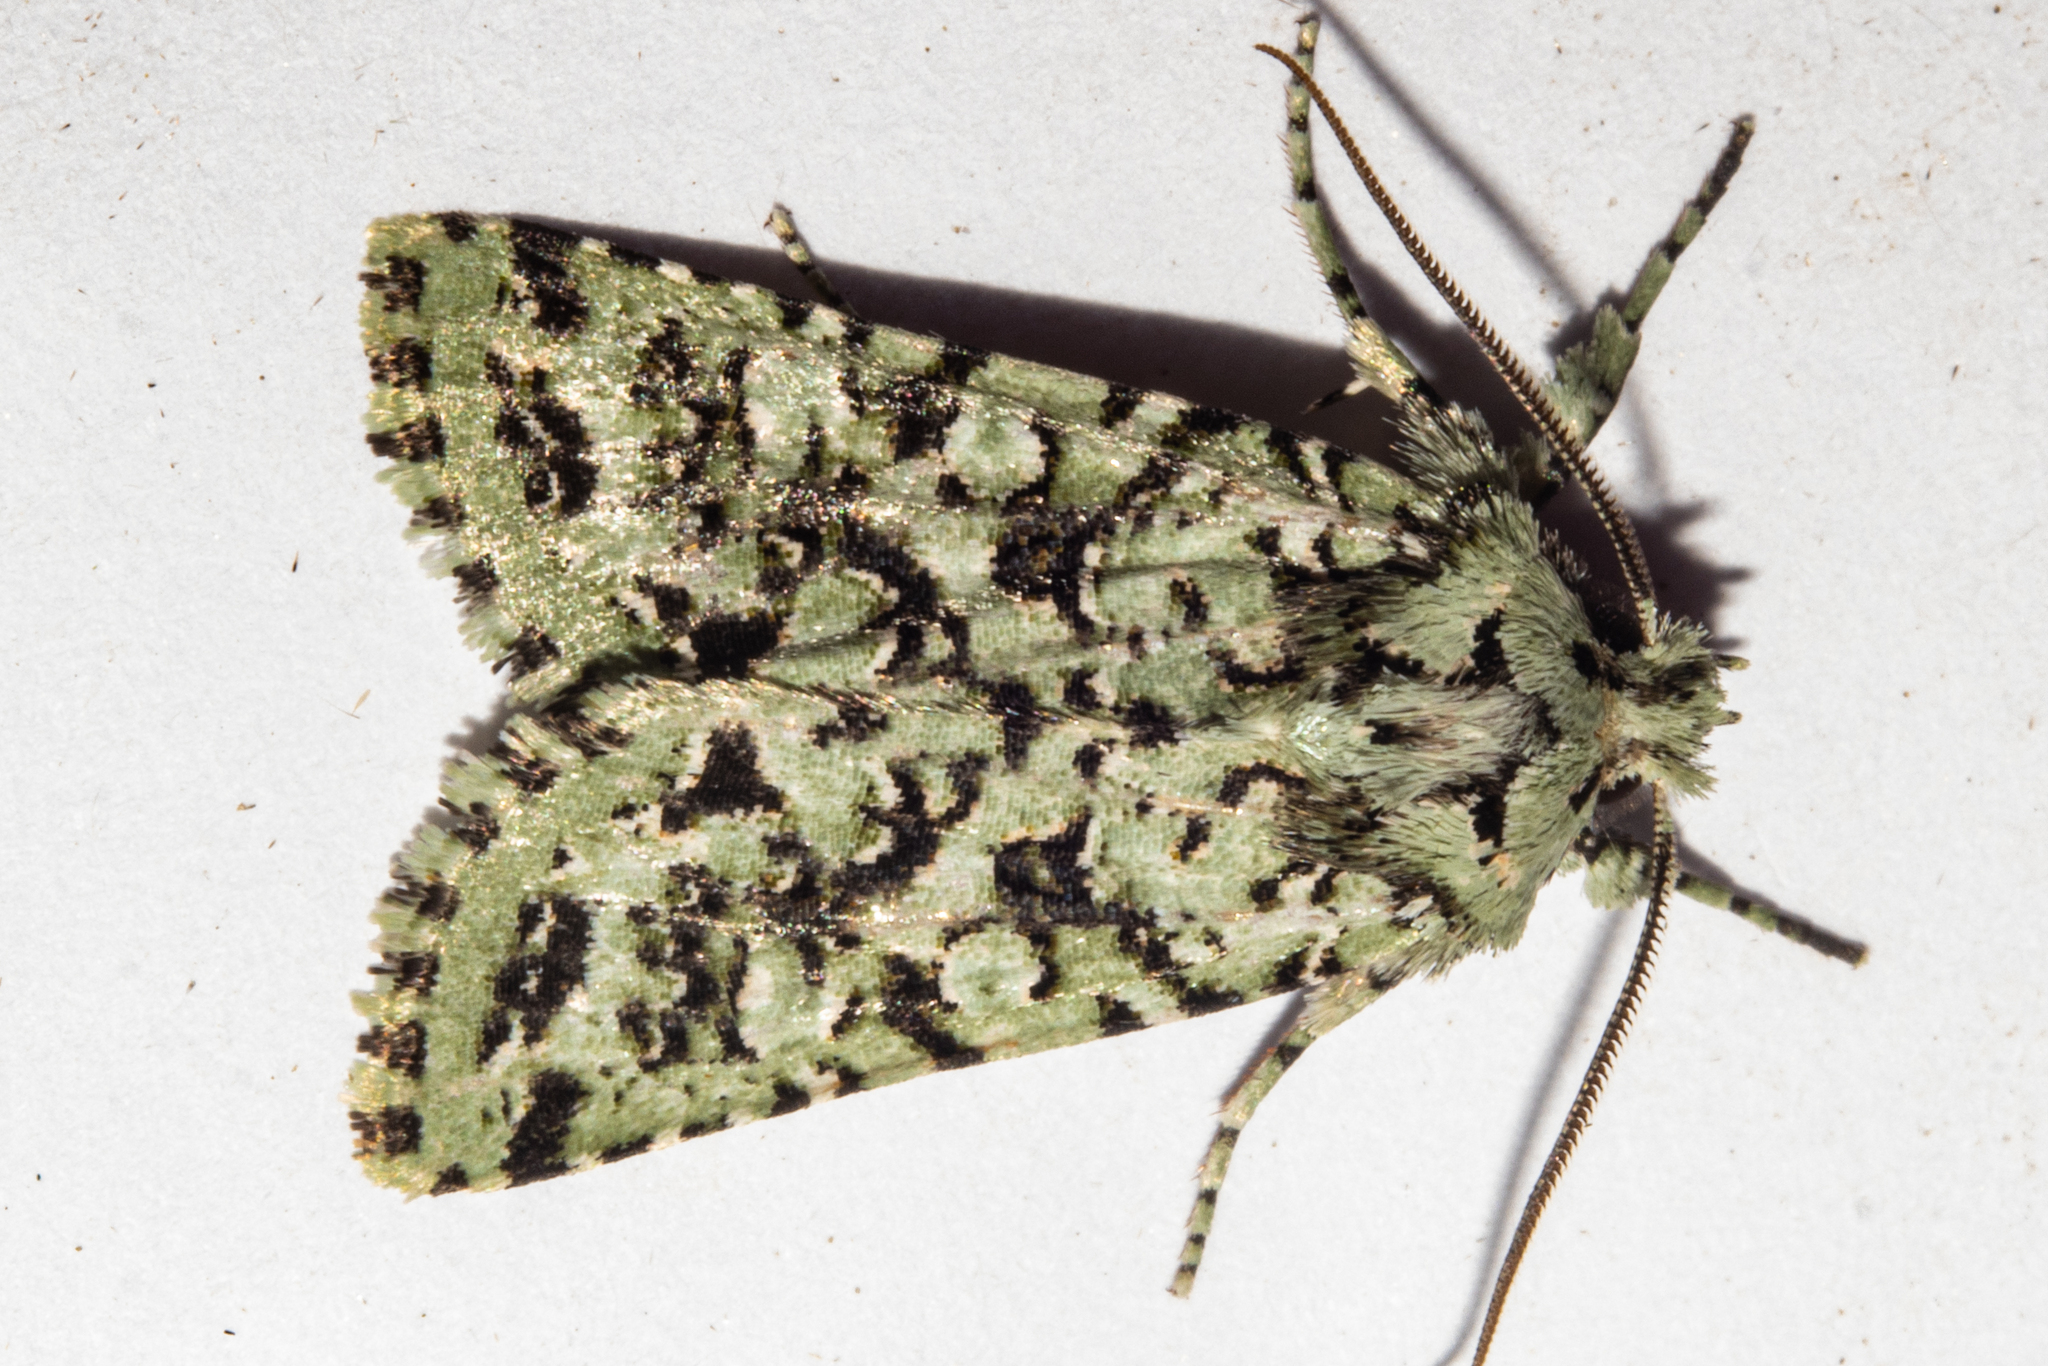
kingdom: Animalia
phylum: Arthropoda
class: Insecta
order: Lepidoptera
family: Noctuidae
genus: Meterana
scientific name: Meterana
